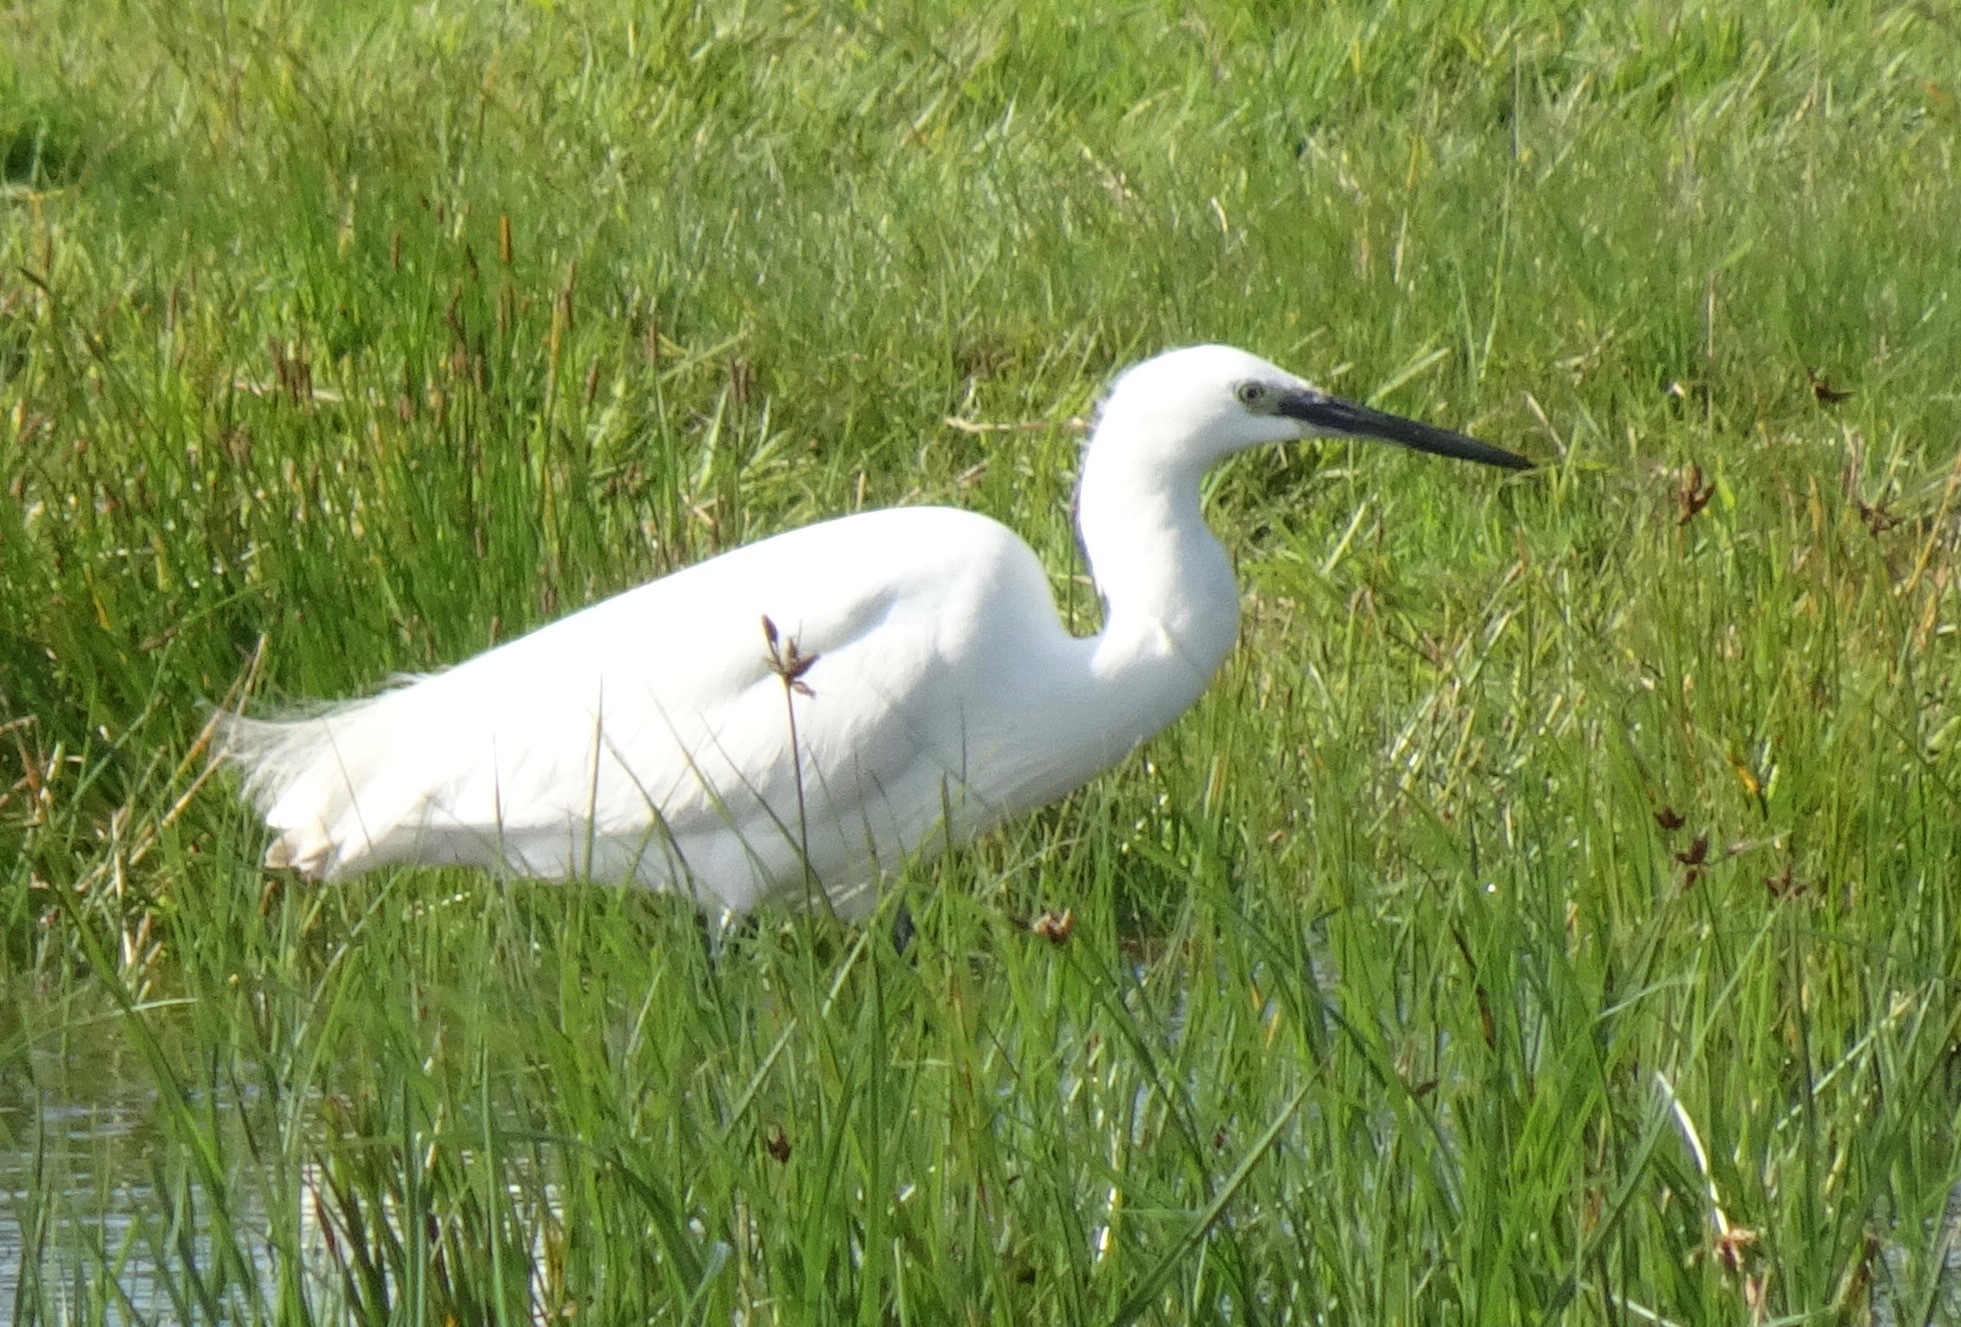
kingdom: Animalia
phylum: Chordata
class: Aves
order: Pelecaniformes
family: Ardeidae
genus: Egretta
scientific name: Egretta garzetta
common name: Little egret
